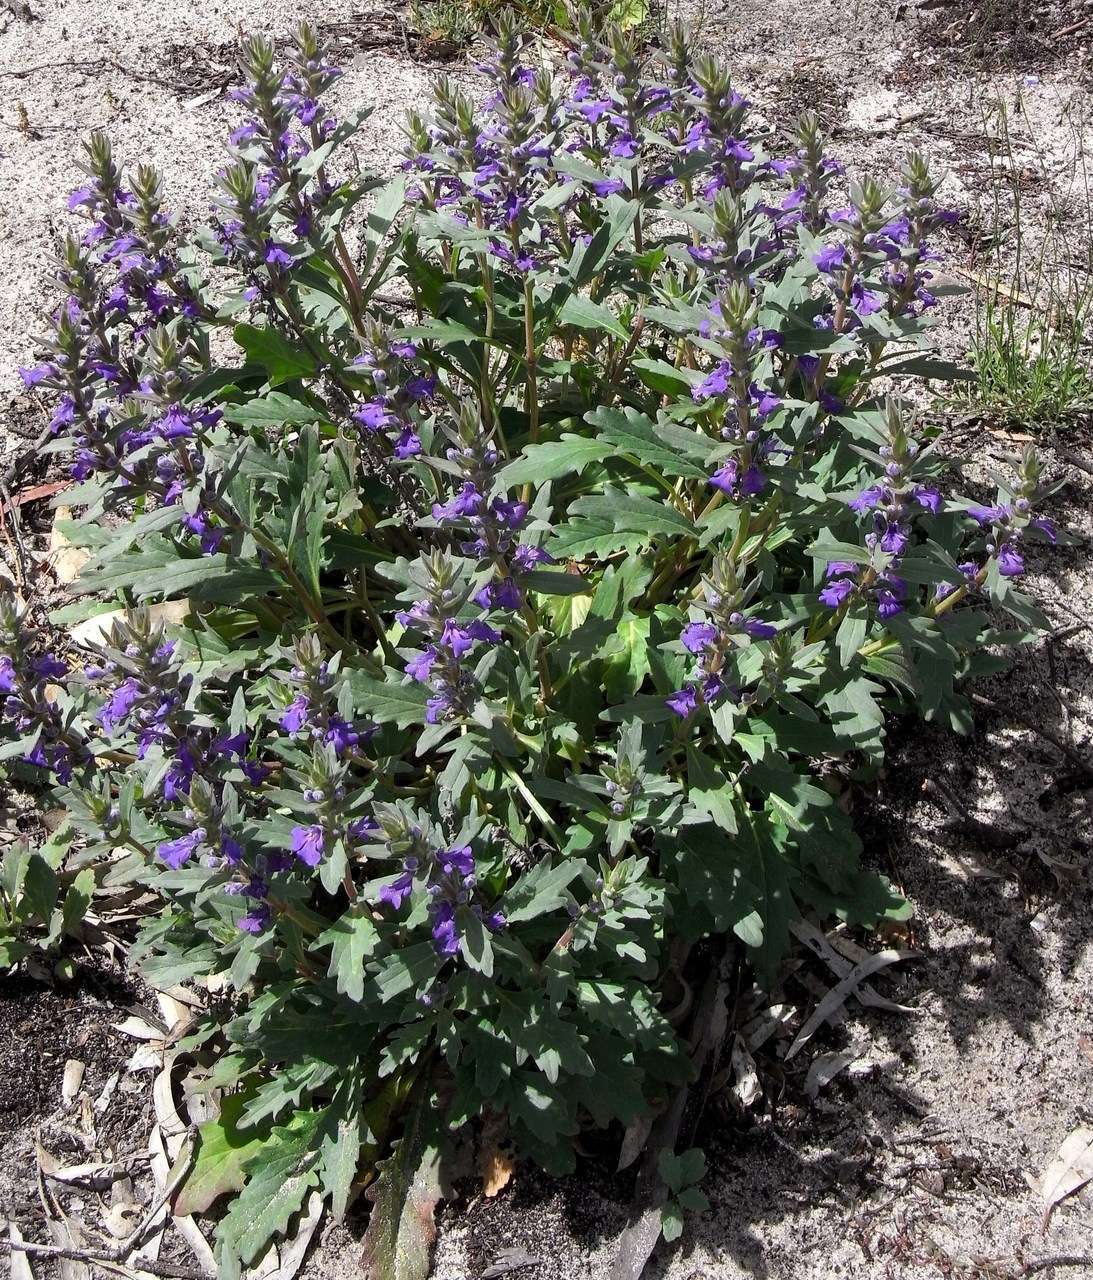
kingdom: Plantae
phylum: Tracheophyta
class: Magnoliopsida
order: Lamiales
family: Lamiaceae
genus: Ajuga
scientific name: Ajuga australis
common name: Australian bugle
